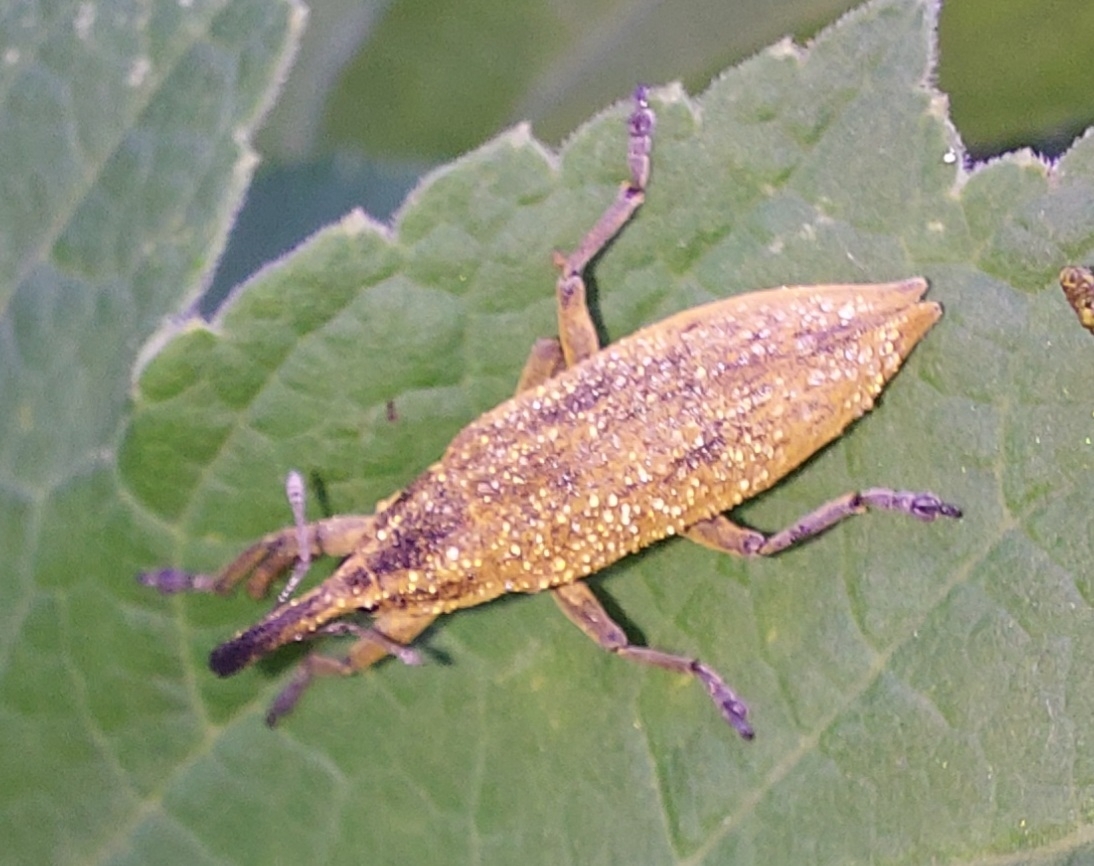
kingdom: Animalia
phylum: Arthropoda
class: Insecta
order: Coleoptera
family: Curculionidae
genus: Lixus
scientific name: Lixus iridis
